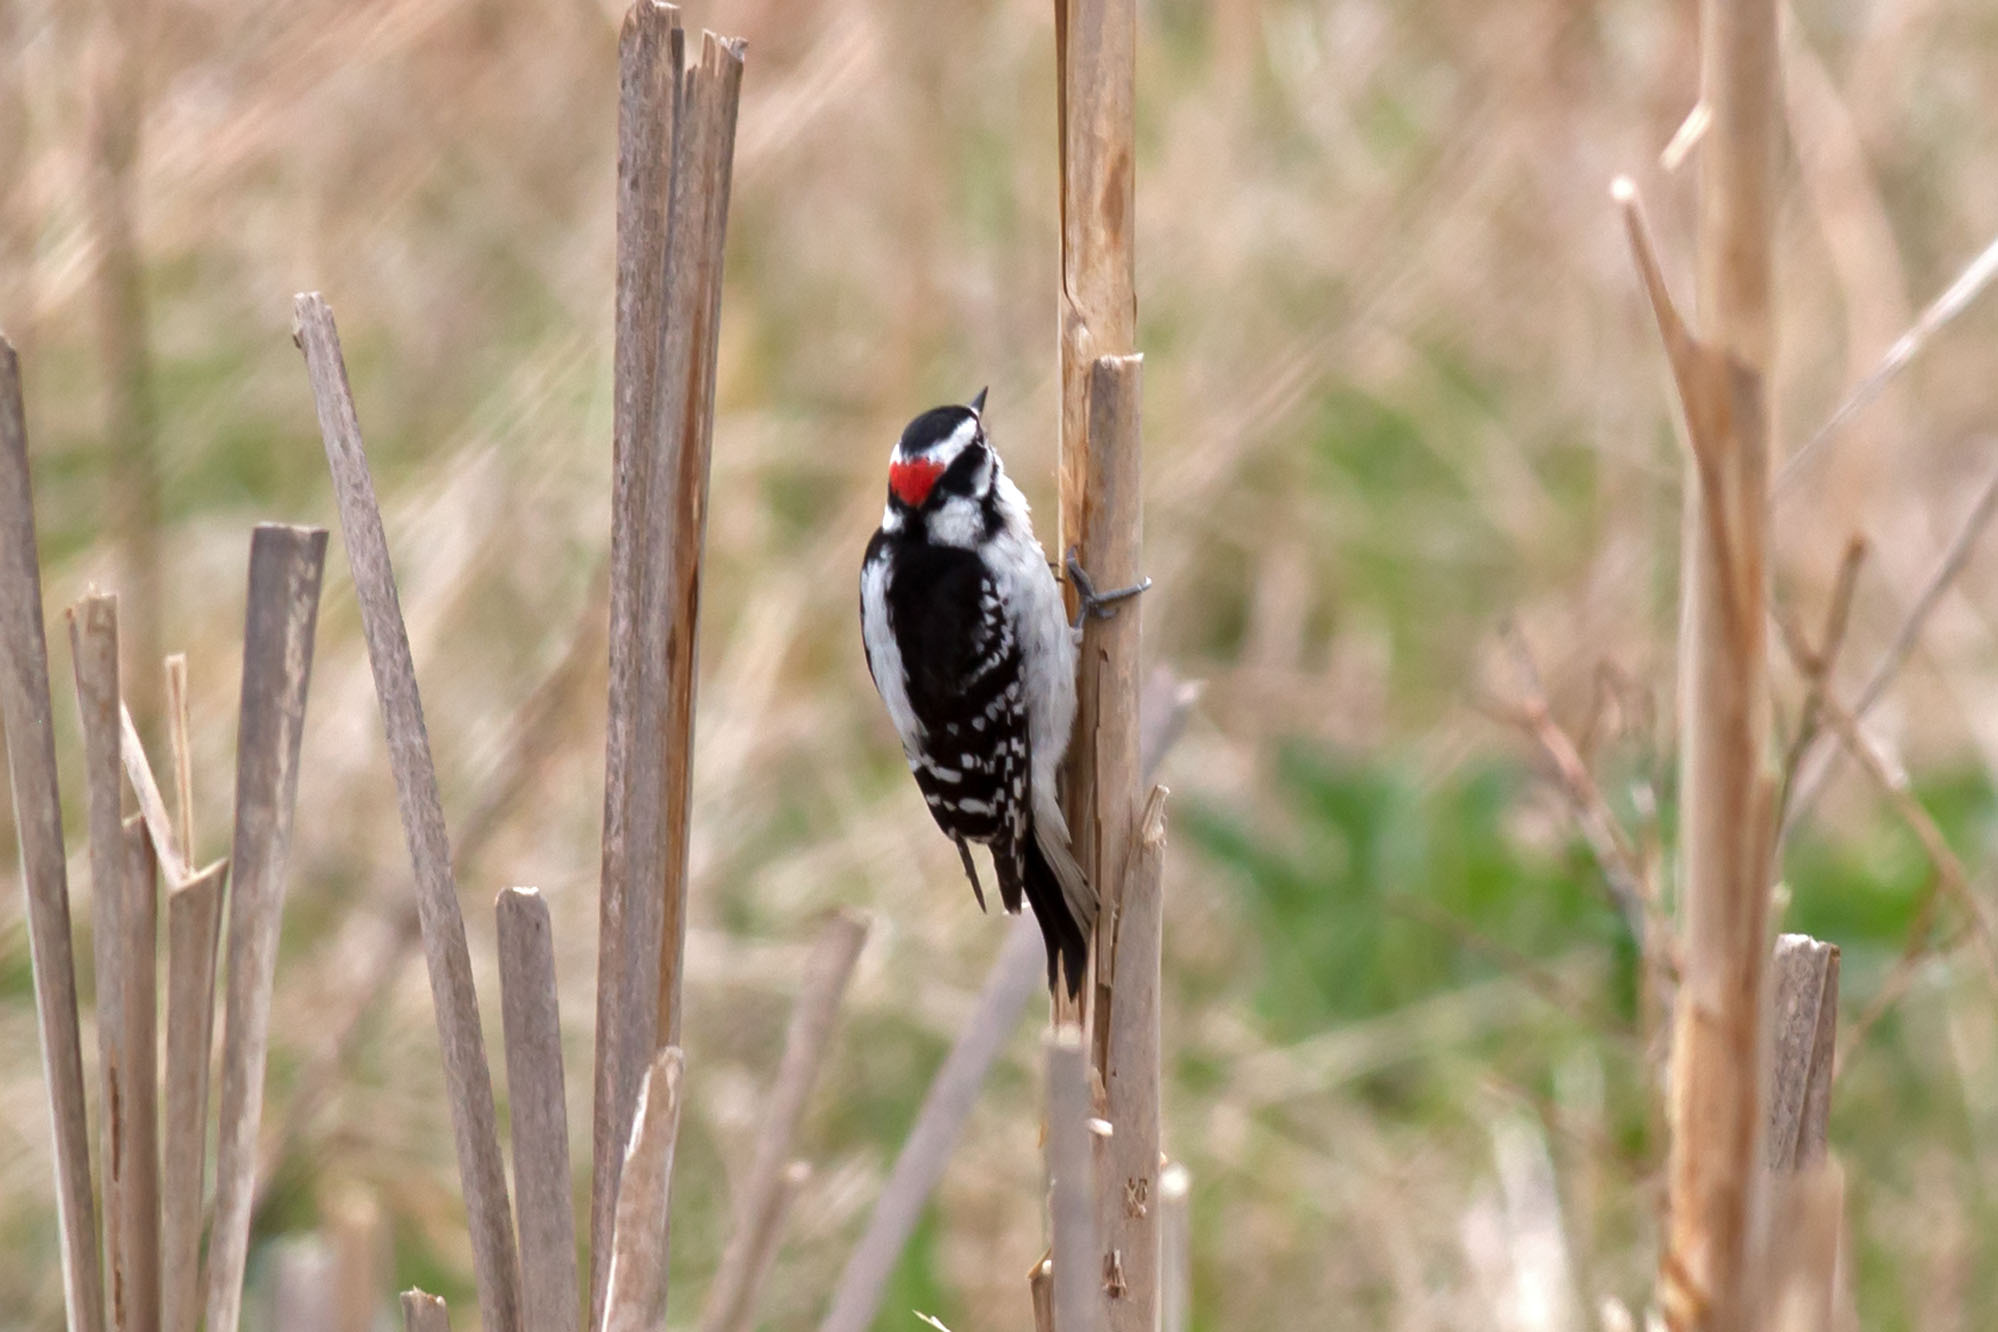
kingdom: Animalia
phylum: Chordata
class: Aves
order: Piciformes
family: Picidae
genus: Dryobates
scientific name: Dryobates pubescens
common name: Downy woodpecker
